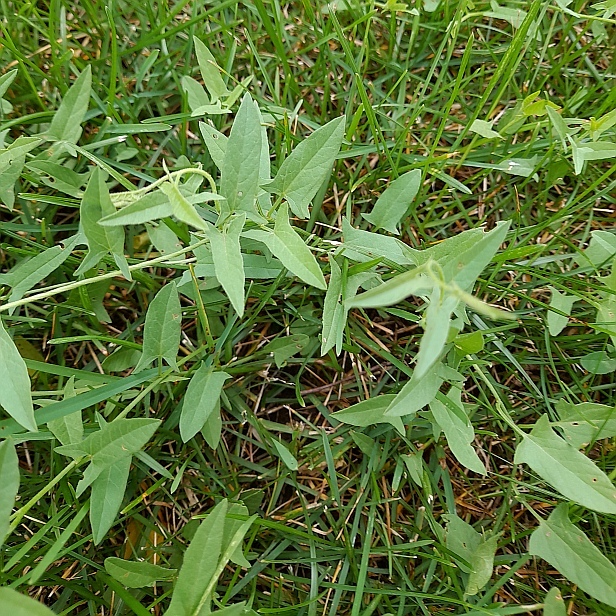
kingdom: Plantae
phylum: Tracheophyta
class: Magnoliopsida
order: Solanales
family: Convolvulaceae
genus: Convolvulus
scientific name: Convolvulus arvensis
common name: Field bindweed
